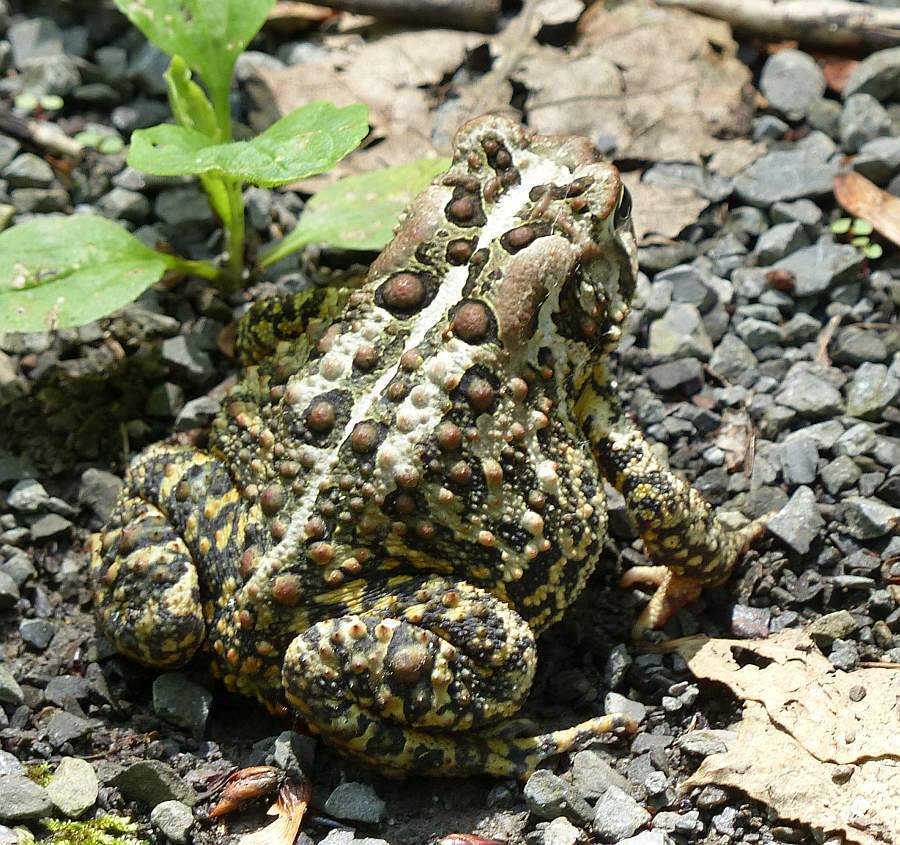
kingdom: Animalia
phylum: Chordata
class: Amphibia
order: Anura
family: Bufonidae
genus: Anaxyrus
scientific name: Anaxyrus americanus
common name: American toad
